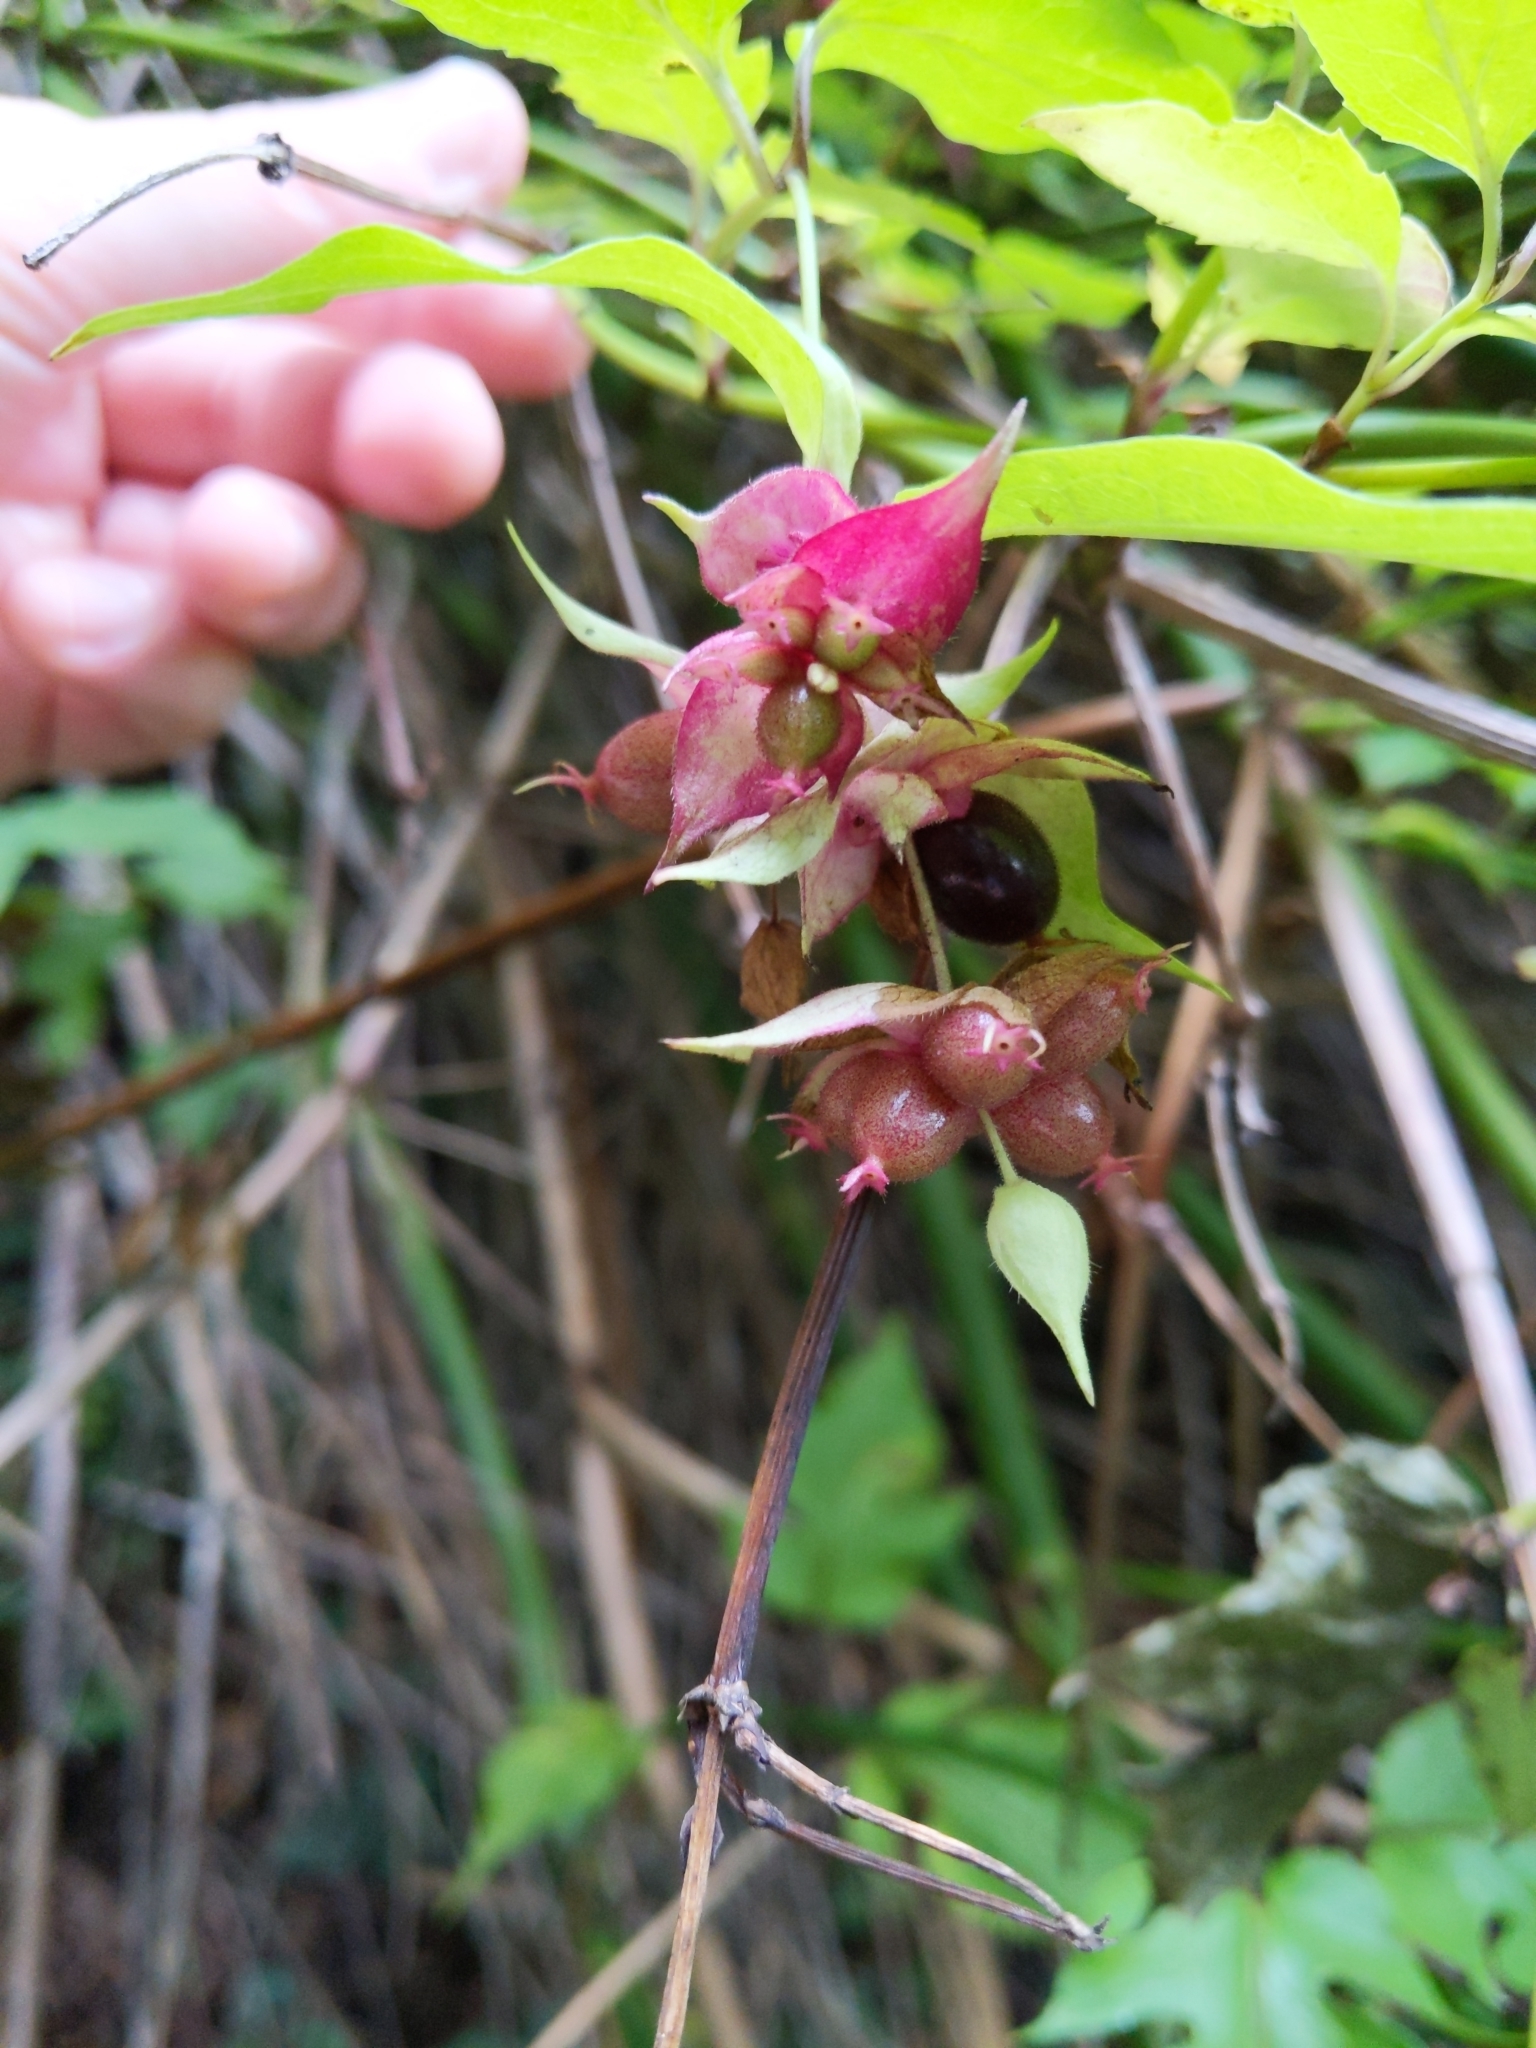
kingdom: Plantae
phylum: Tracheophyta
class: Magnoliopsida
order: Dipsacales
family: Caprifoliaceae
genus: Leycesteria
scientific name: Leycesteria formosa
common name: Himalayan honeysuckle
